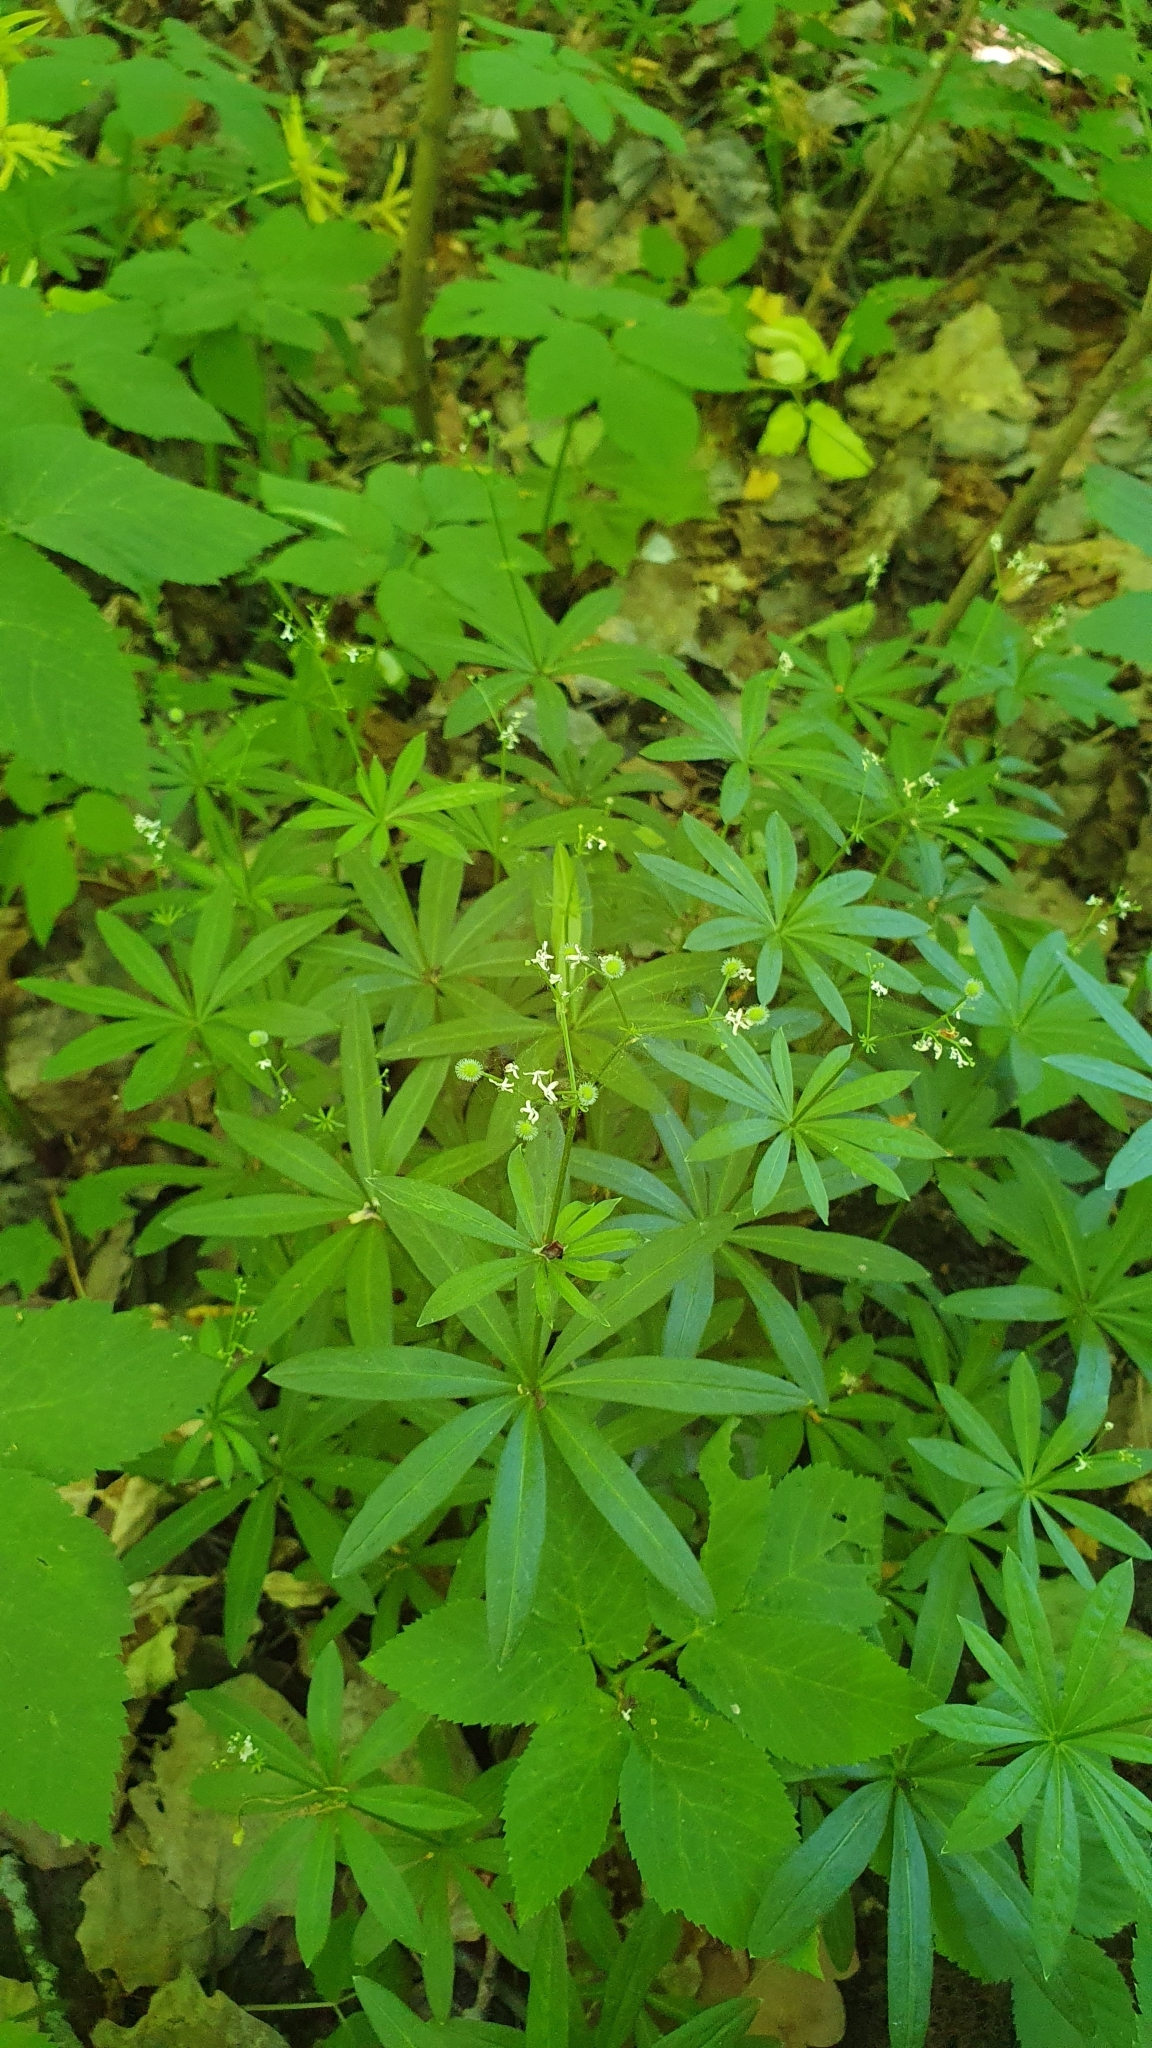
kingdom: Plantae
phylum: Tracheophyta
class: Magnoliopsida
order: Gentianales
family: Rubiaceae
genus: Galium
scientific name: Galium odoratum
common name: Sweet woodruff
